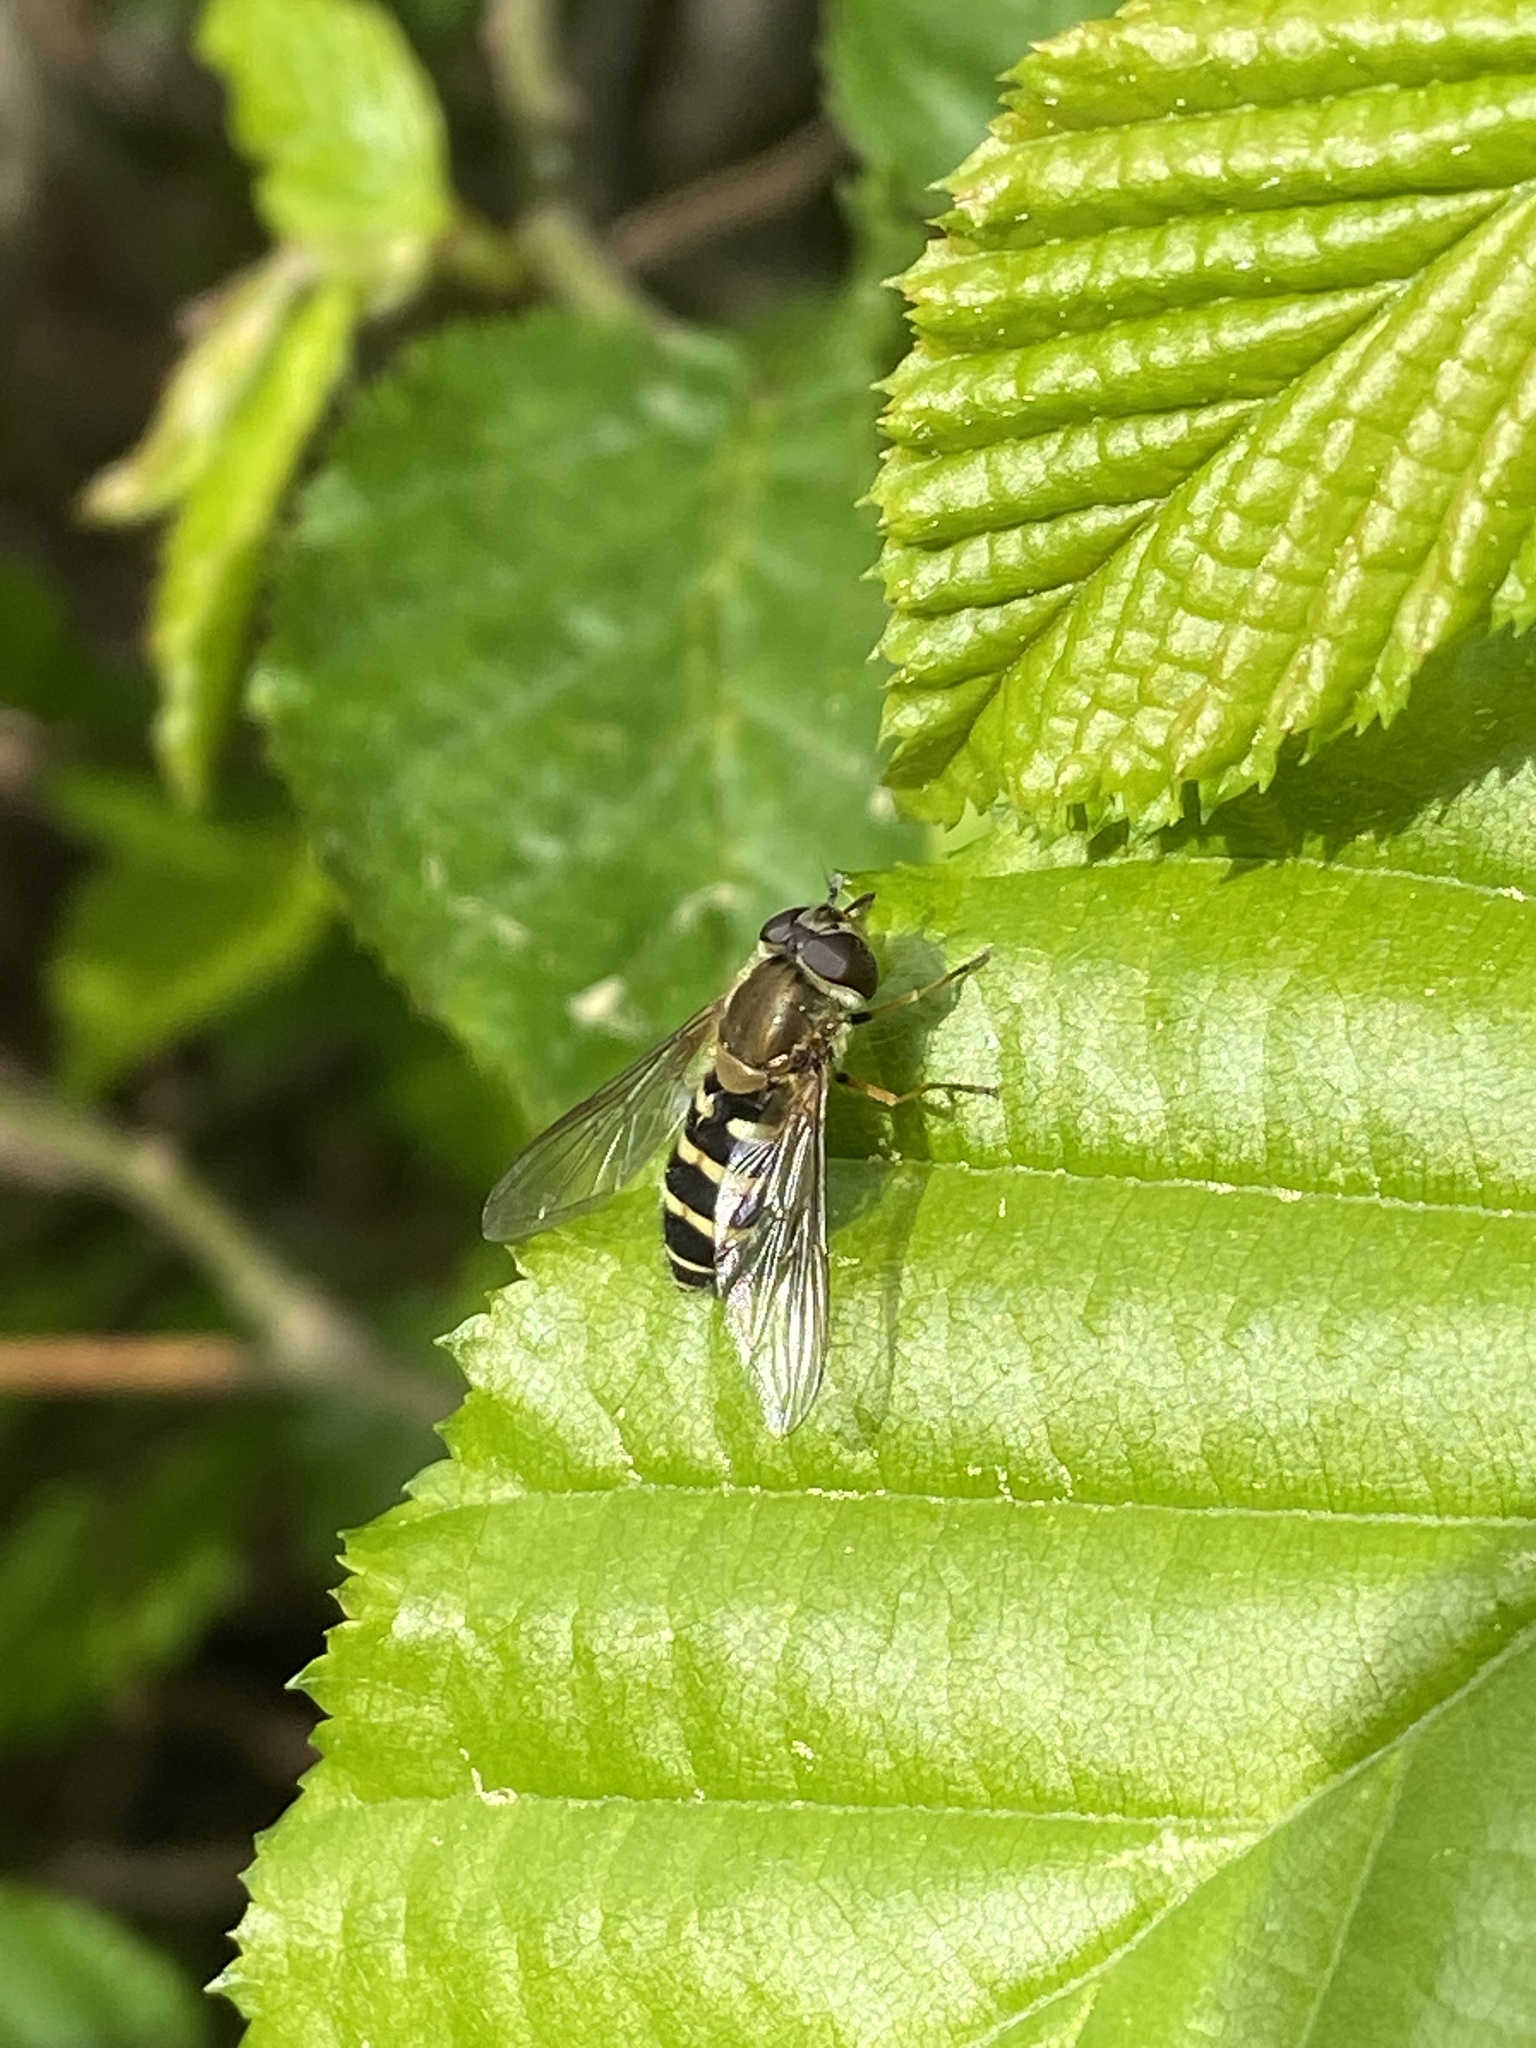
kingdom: Animalia
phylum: Arthropoda
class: Insecta
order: Diptera
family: Syrphidae
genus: Syrphus
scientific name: Syrphus
